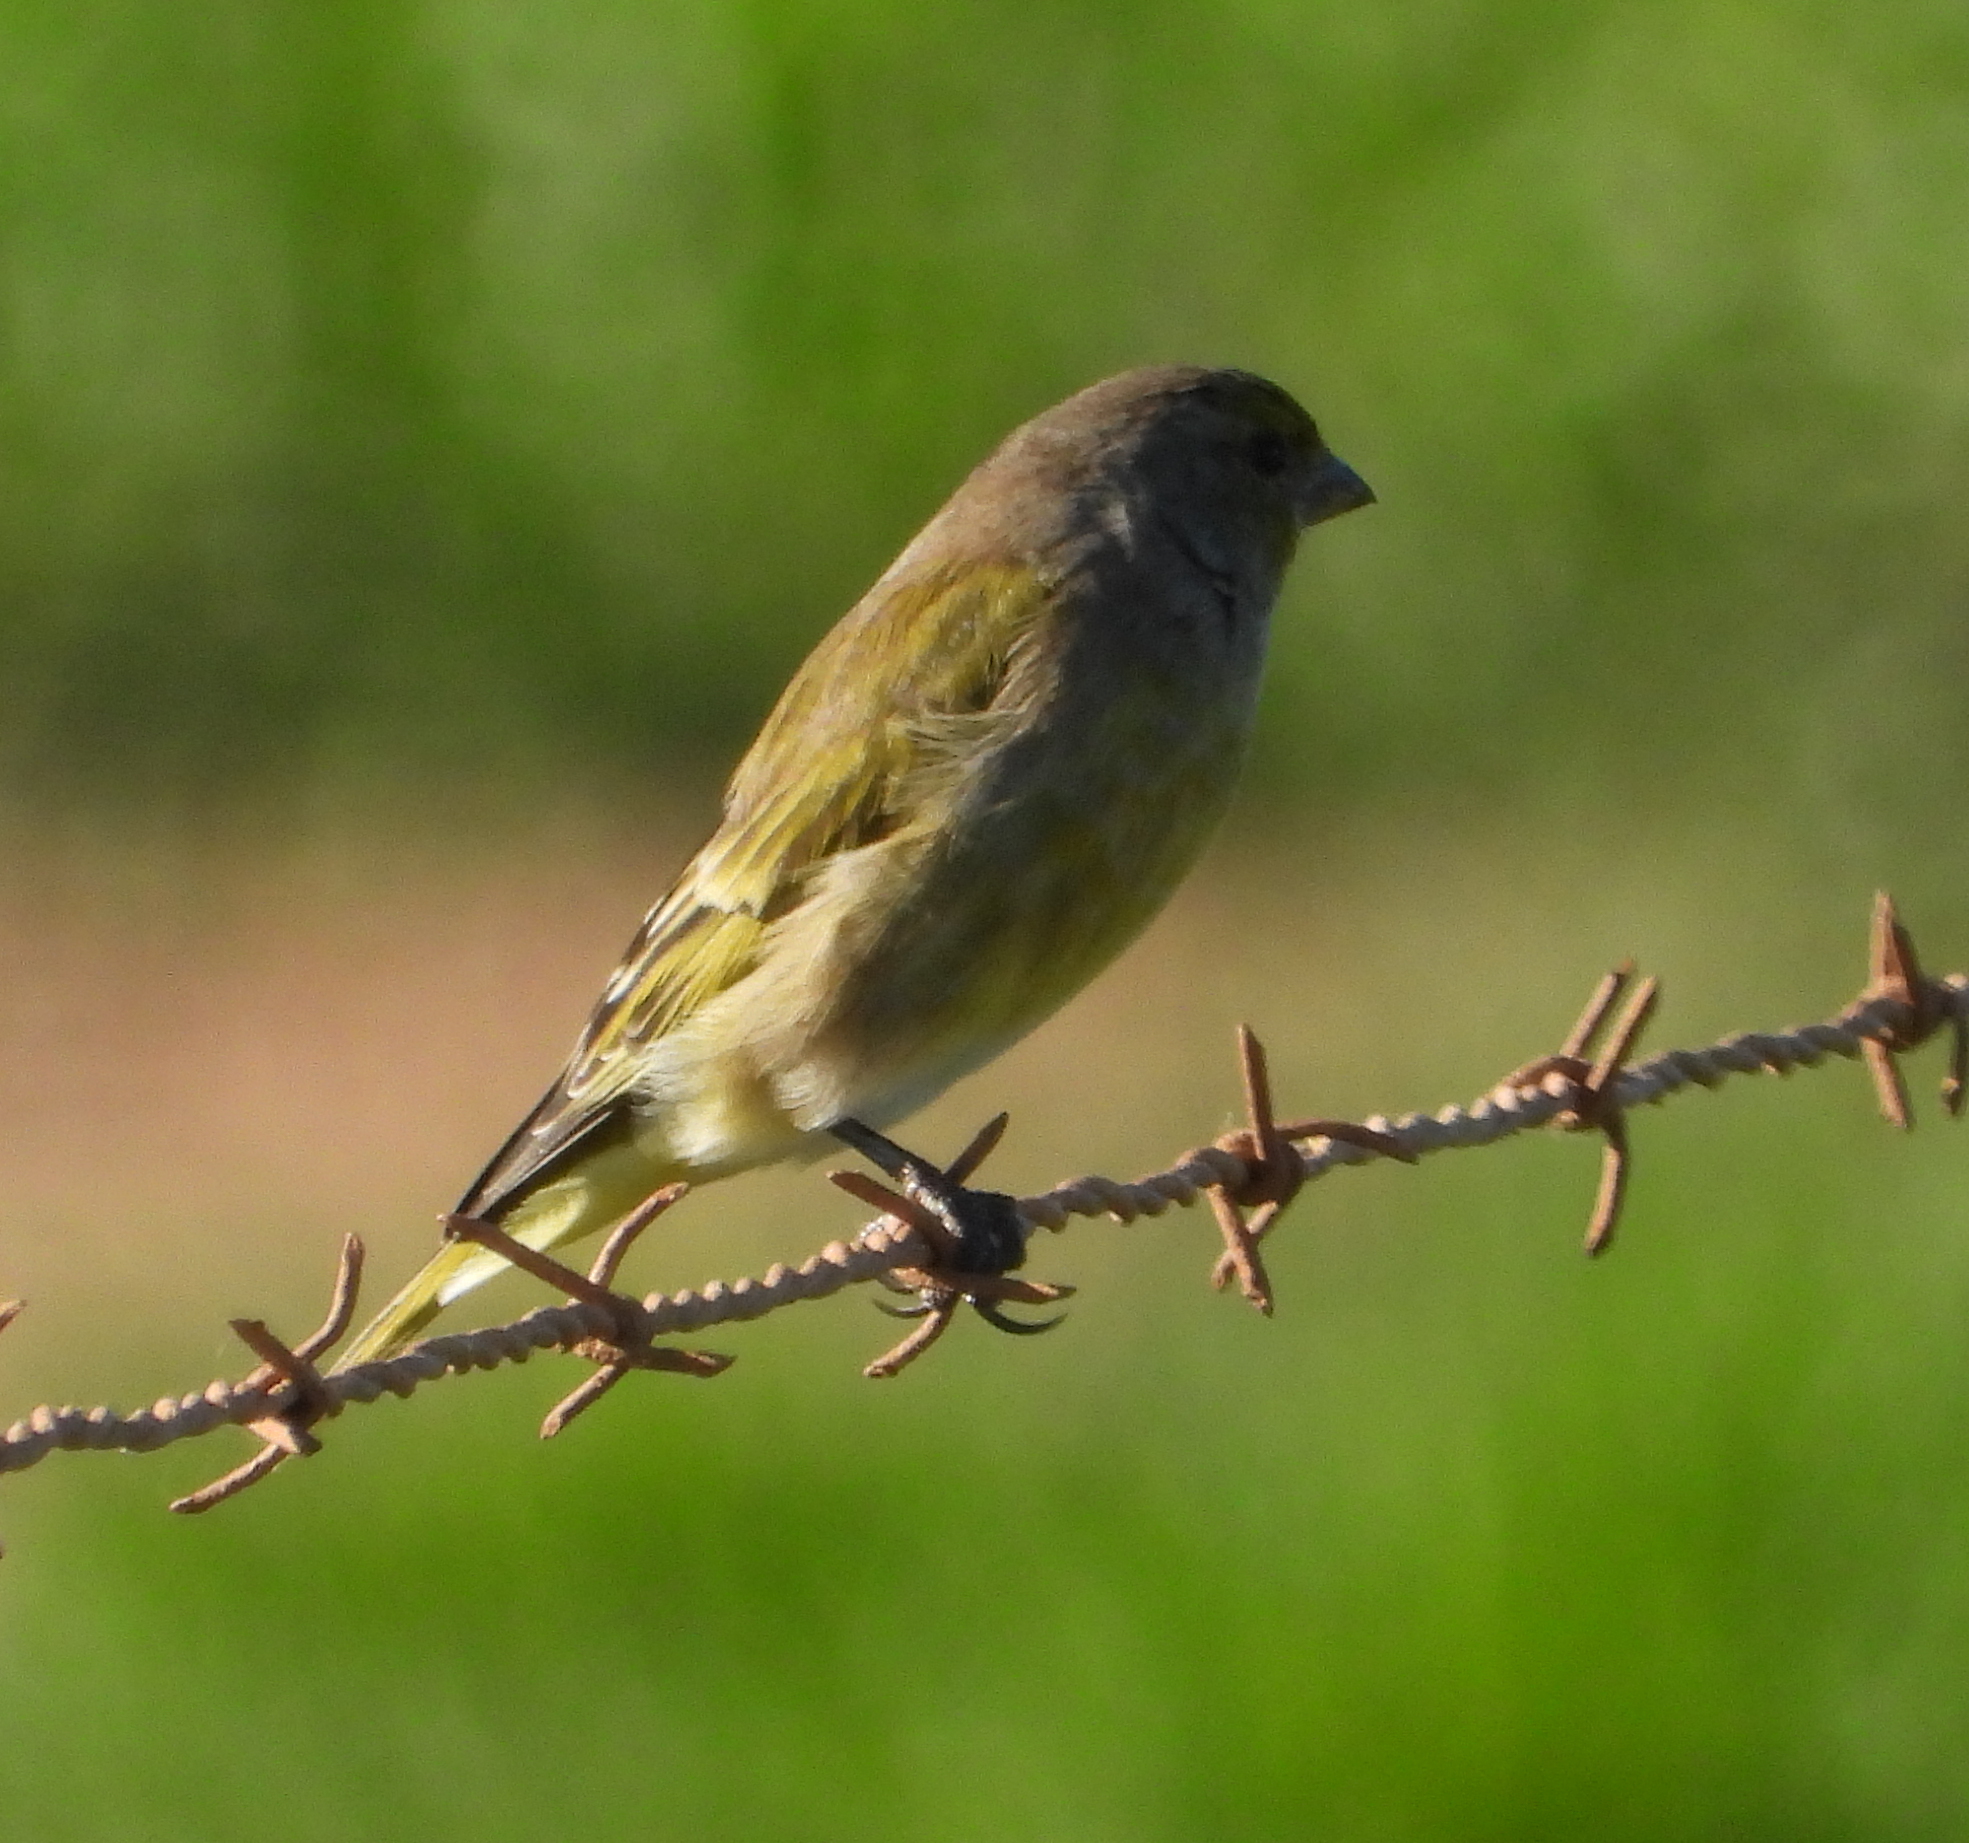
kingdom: Animalia
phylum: Chordata
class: Aves
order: Passeriformes
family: Fringillidae
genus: Serinus
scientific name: Serinus canicollis
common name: Cape canary
